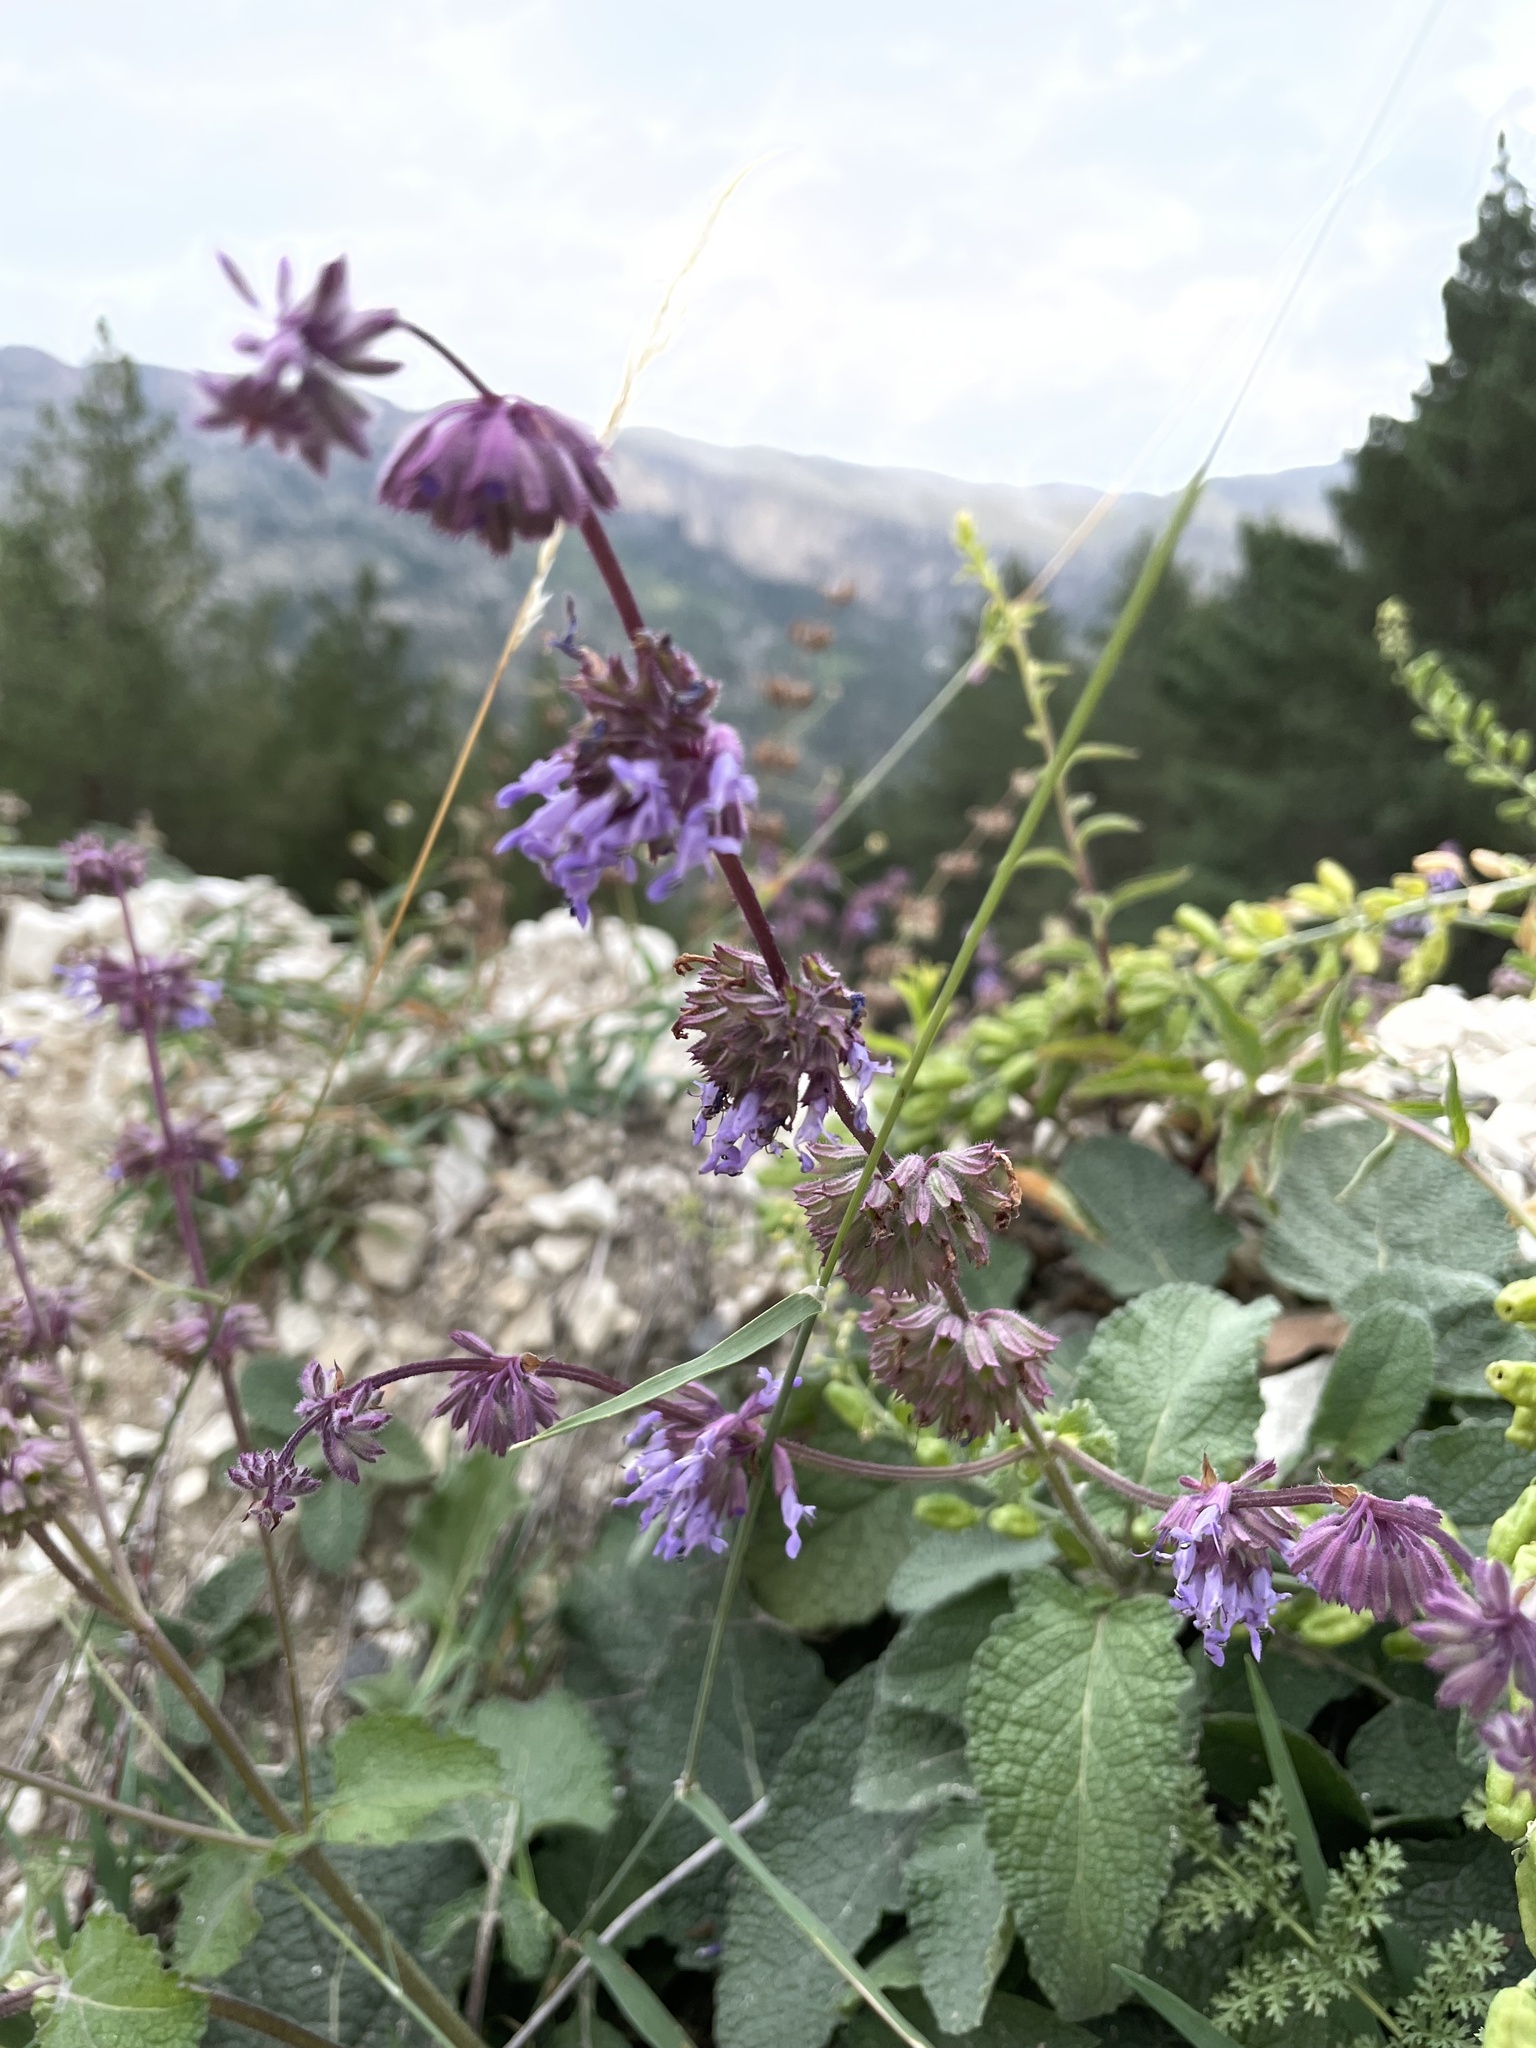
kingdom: Plantae
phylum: Tracheophyta
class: Magnoliopsida
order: Lamiales
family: Lamiaceae
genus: Salvia
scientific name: Salvia verticillata
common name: Whorled clary
